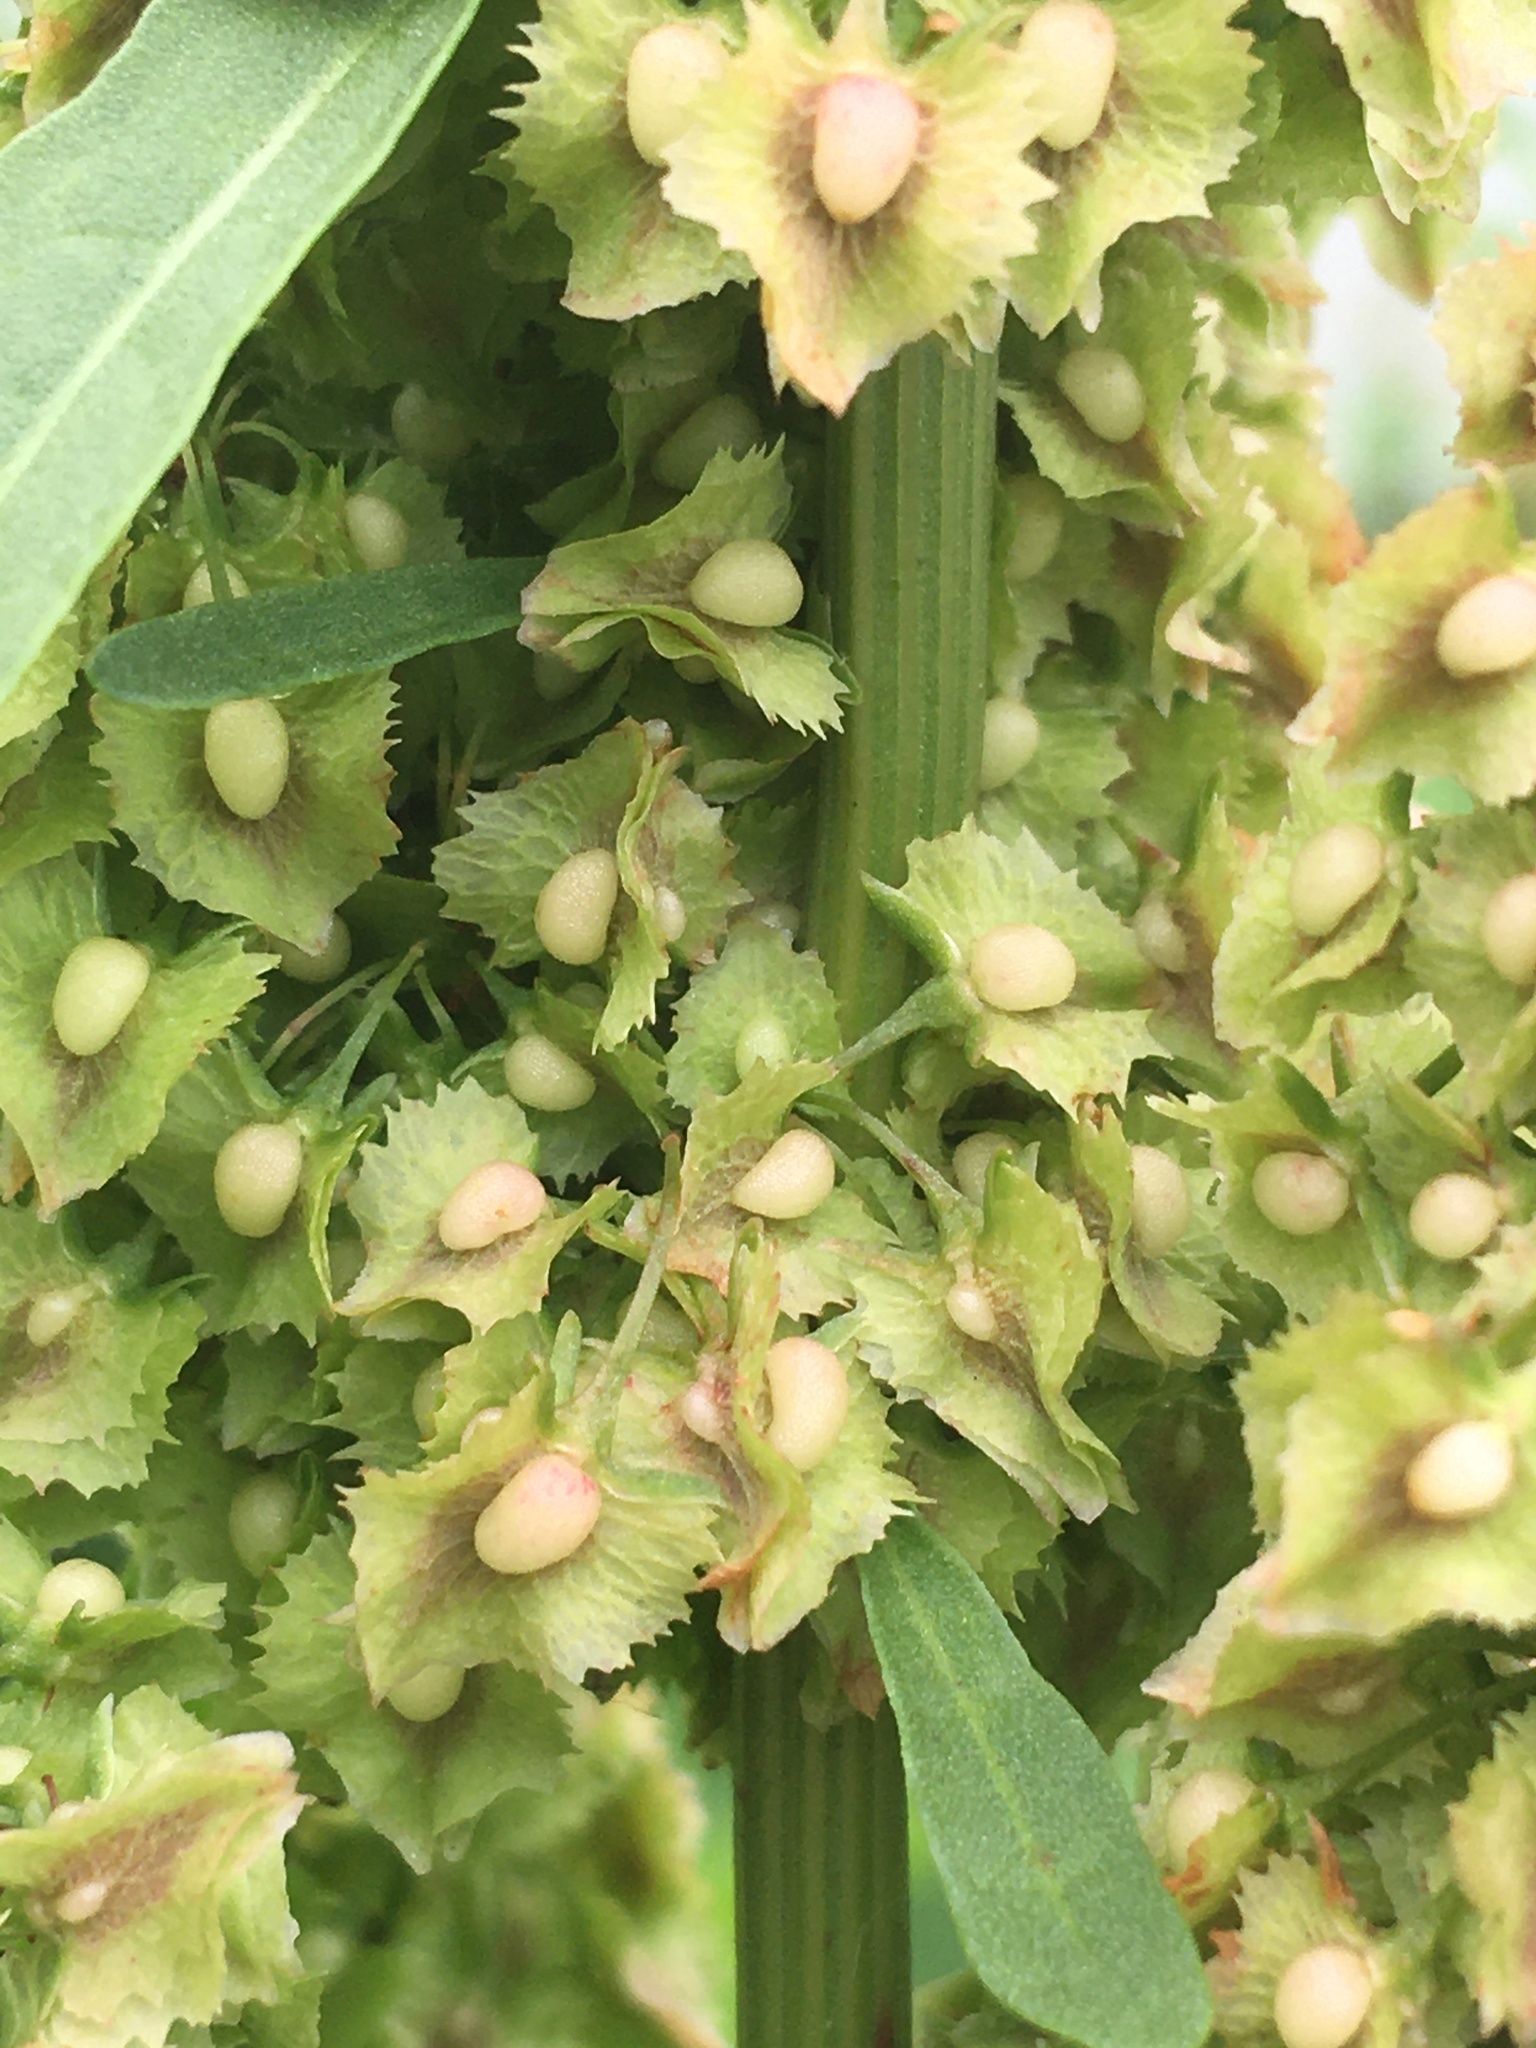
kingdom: Plantae
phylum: Tracheophyta
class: Magnoliopsida
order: Caryophyllales
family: Polygonaceae
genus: Rumex
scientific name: Rumex cristatus
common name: Greek dock
